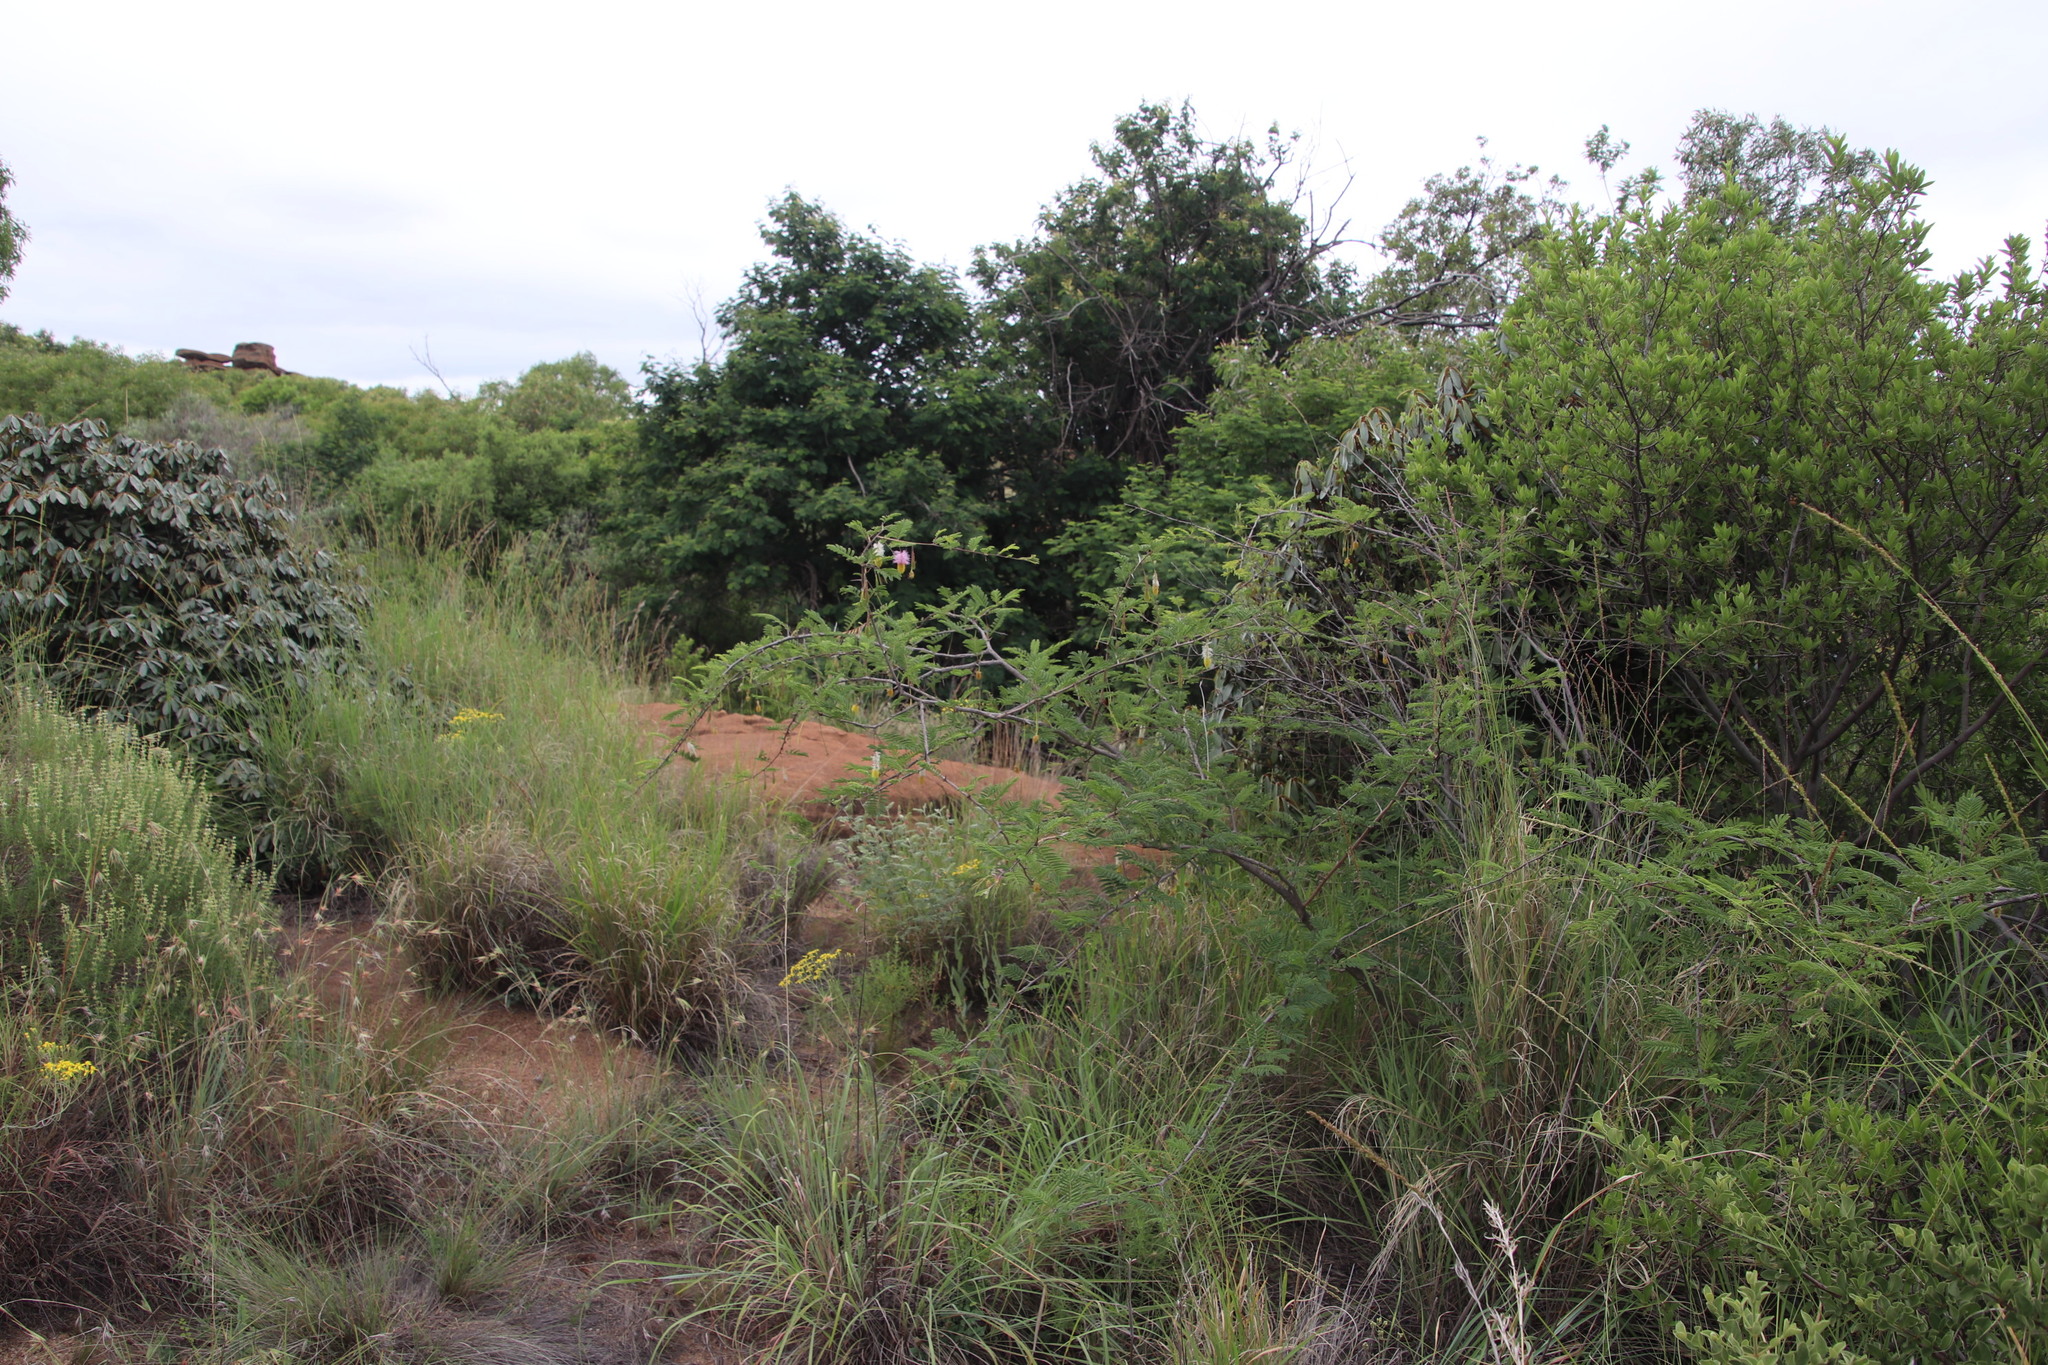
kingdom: Plantae
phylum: Tracheophyta
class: Magnoliopsida
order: Fabales
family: Fabaceae
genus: Dichrostachys
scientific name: Dichrostachys cinerea
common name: Sicklebush
